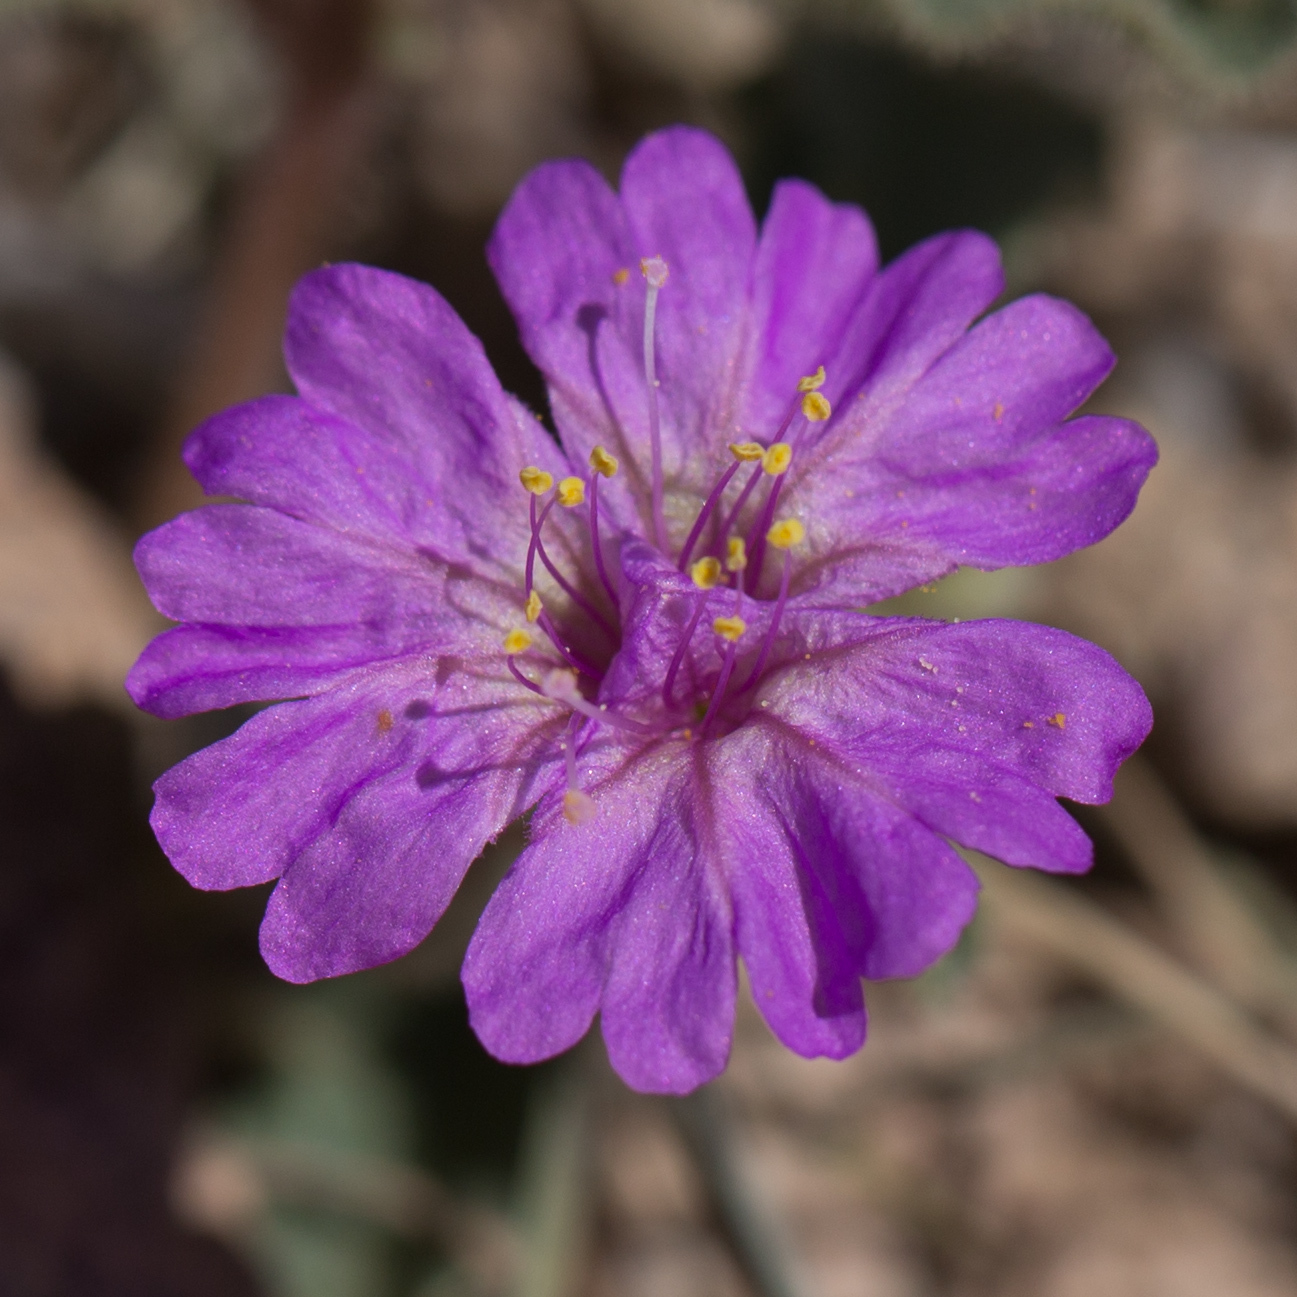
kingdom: Plantae
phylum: Tracheophyta
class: Magnoliopsida
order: Caryophyllales
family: Nyctaginaceae
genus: Allionia
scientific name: Allionia incarnata
